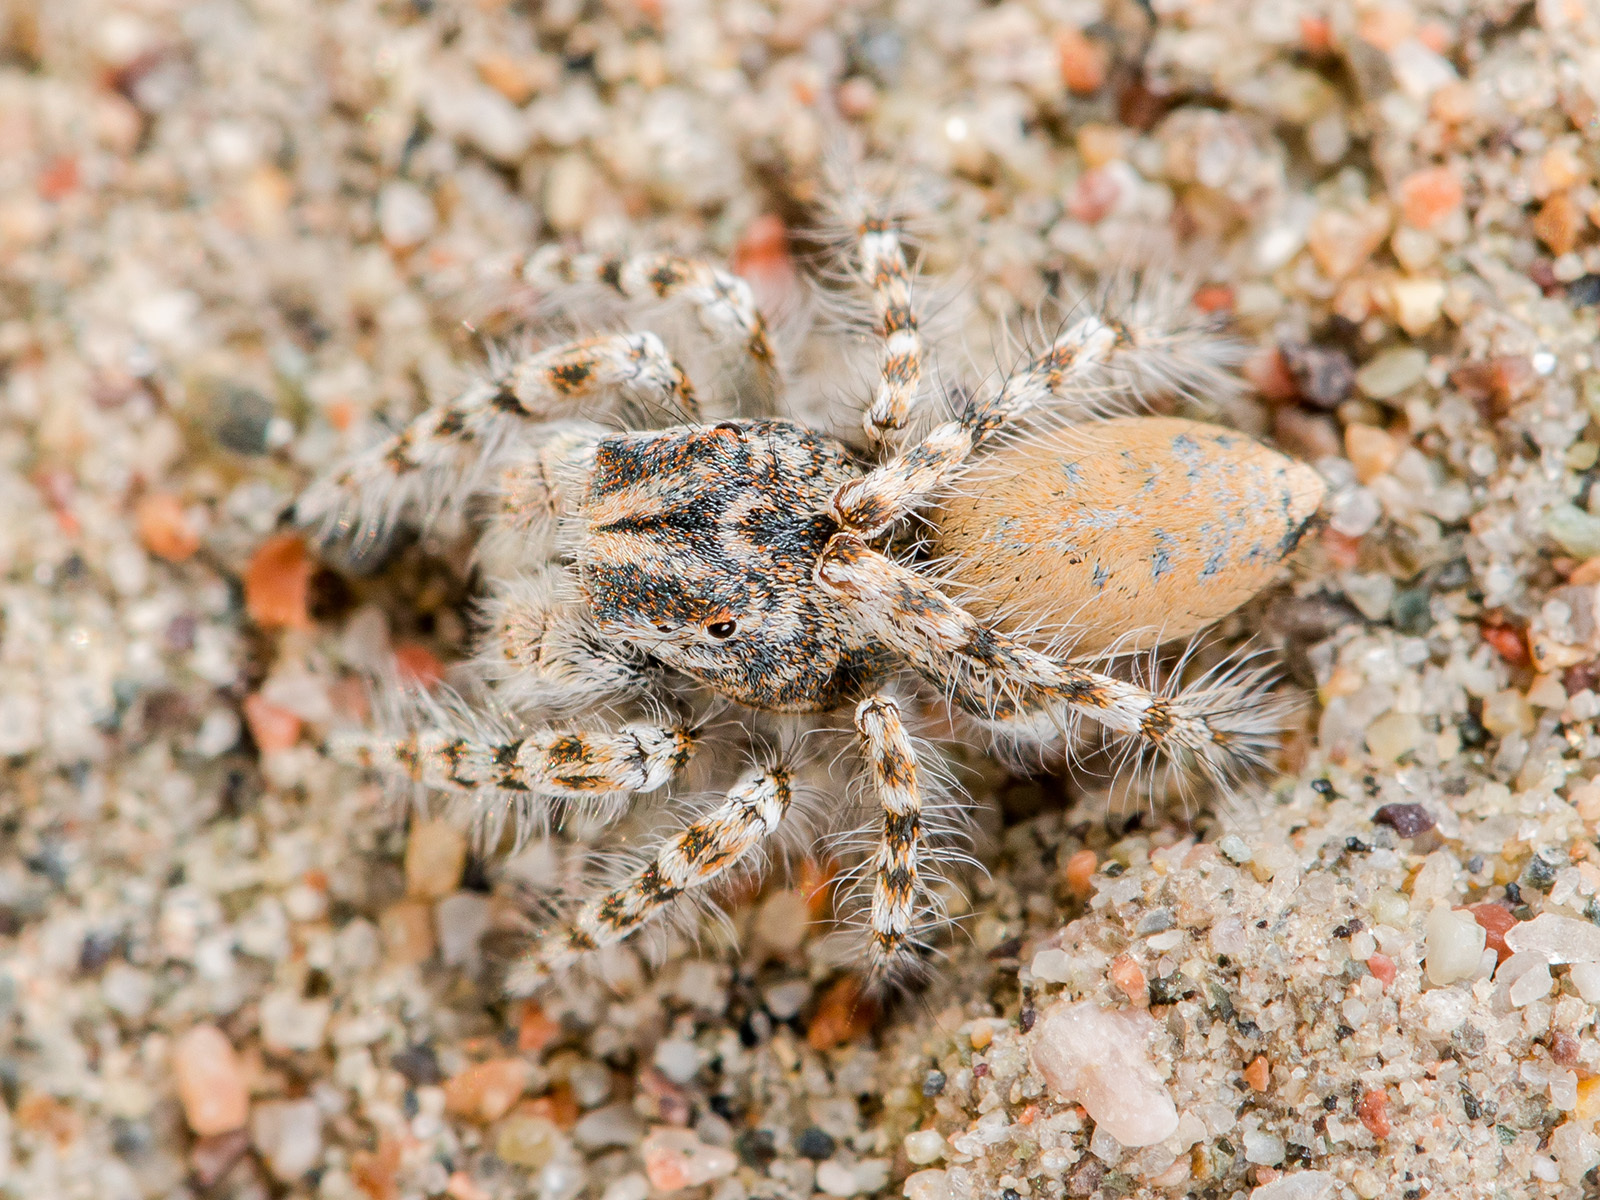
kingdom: Animalia
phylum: Arthropoda
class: Arachnida
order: Araneae
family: Salticidae
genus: Yllenus
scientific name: Yllenus uiguricus
